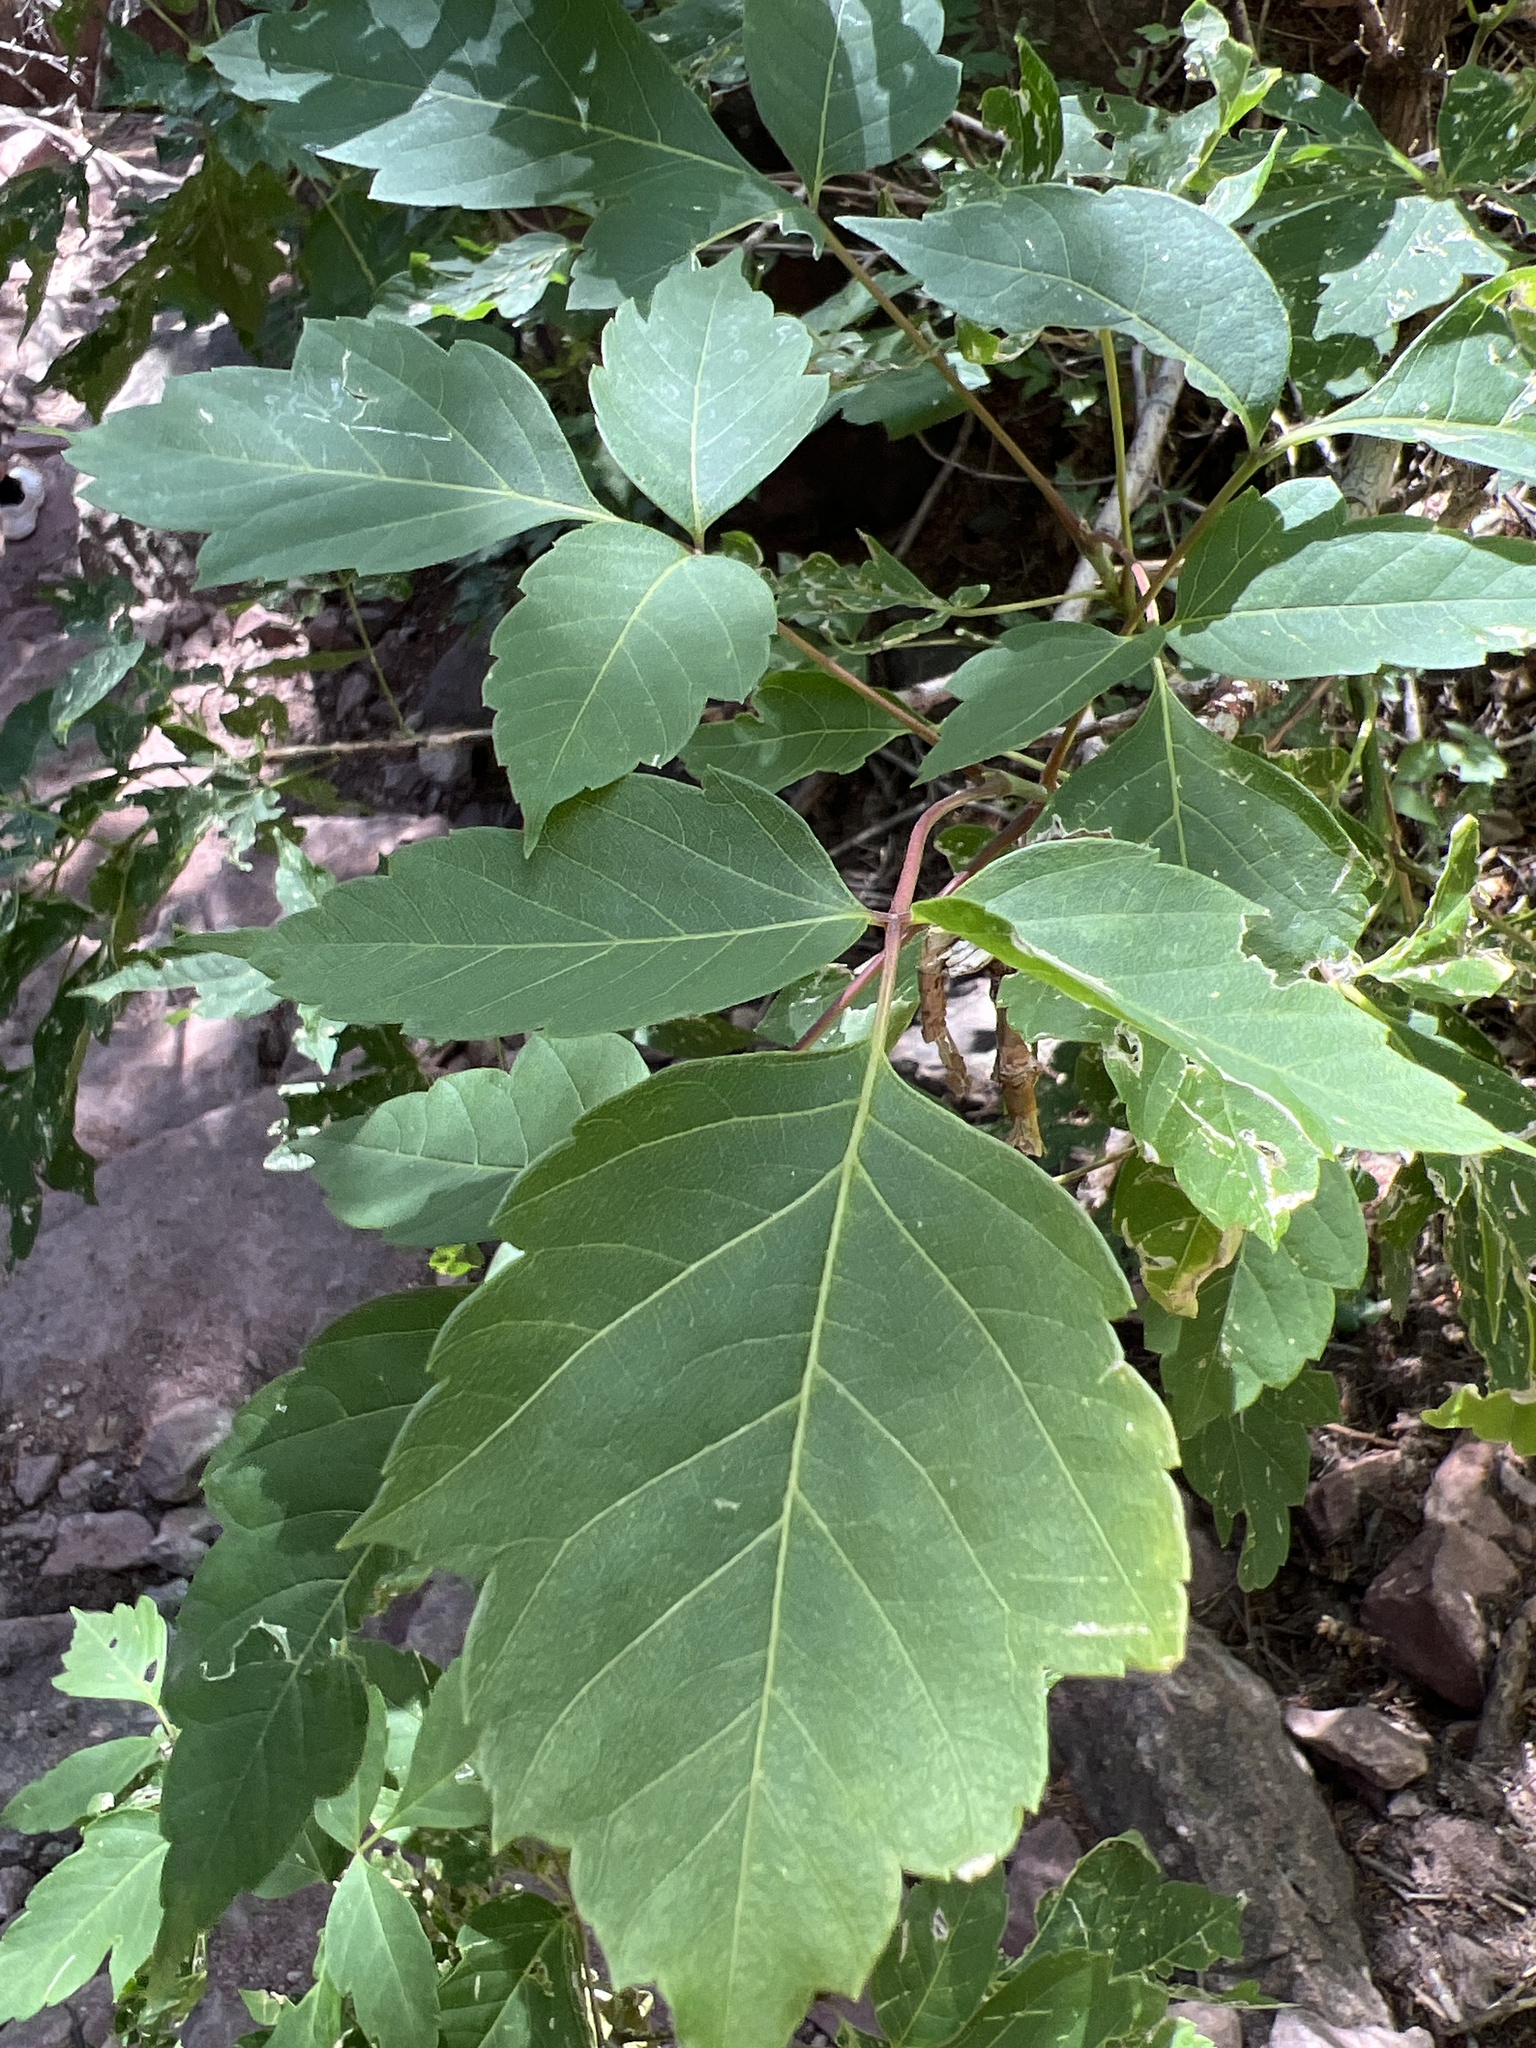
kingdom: Plantae
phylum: Tracheophyta
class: Magnoliopsida
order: Sapindales
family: Sapindaceae
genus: Acer
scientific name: Acer negundo
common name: Ashleaf maple
